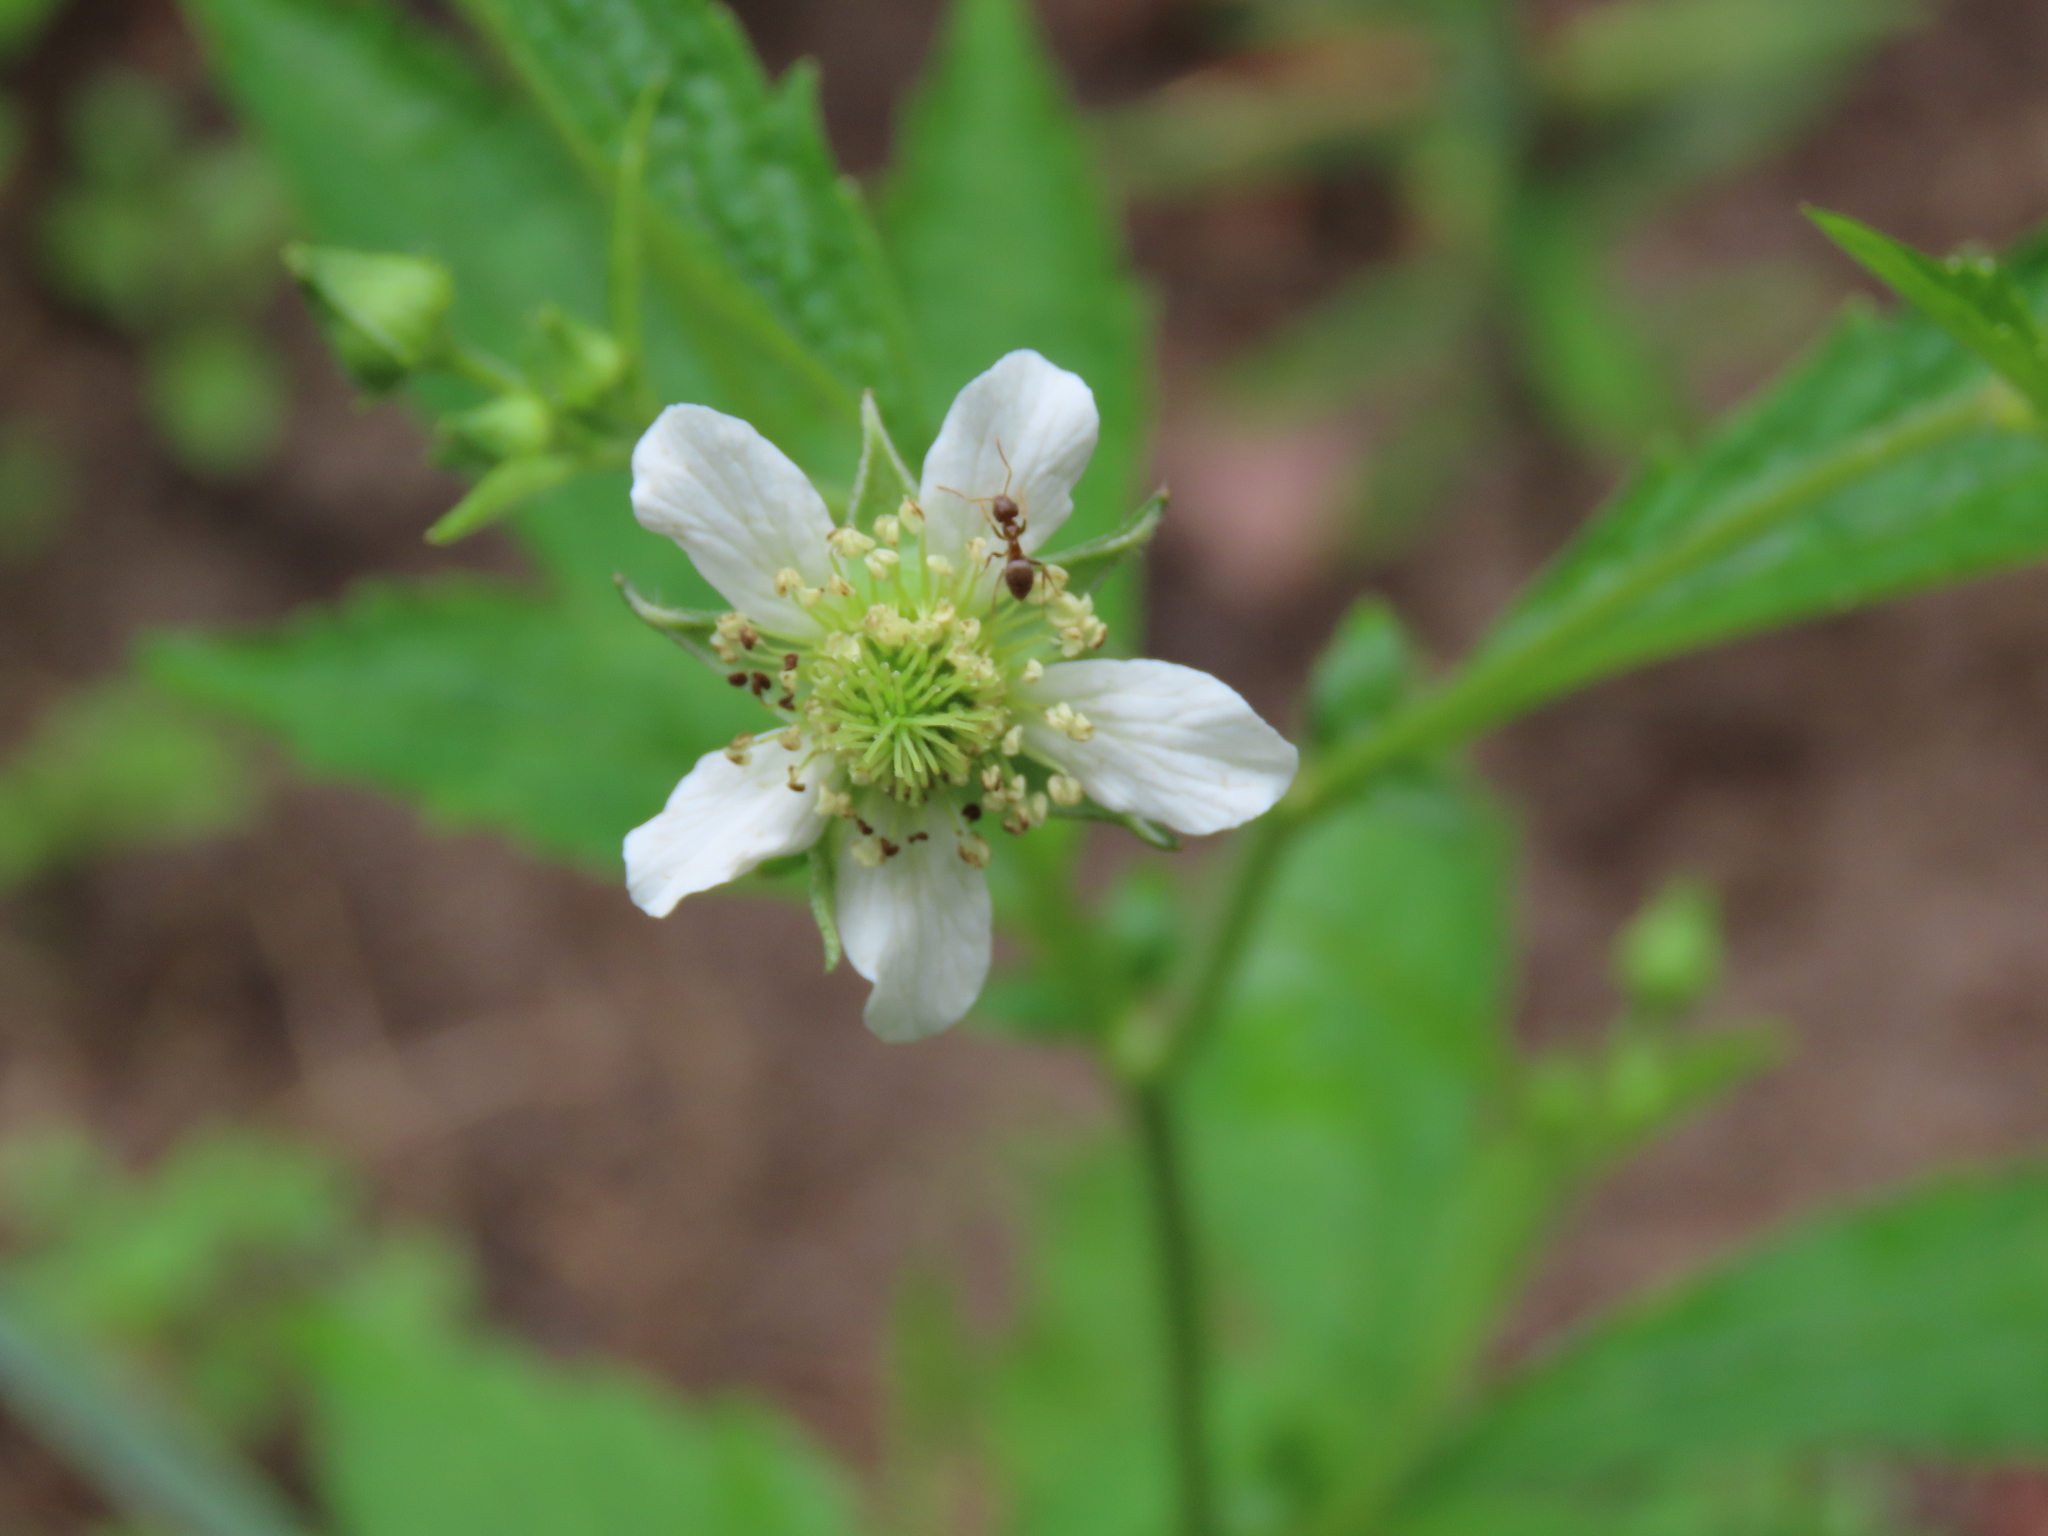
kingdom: Plantae
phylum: Tracheophyta
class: Magnoliopsida
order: Rosales
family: Rosaceae
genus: Geum
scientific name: Geum canadense
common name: White avens
